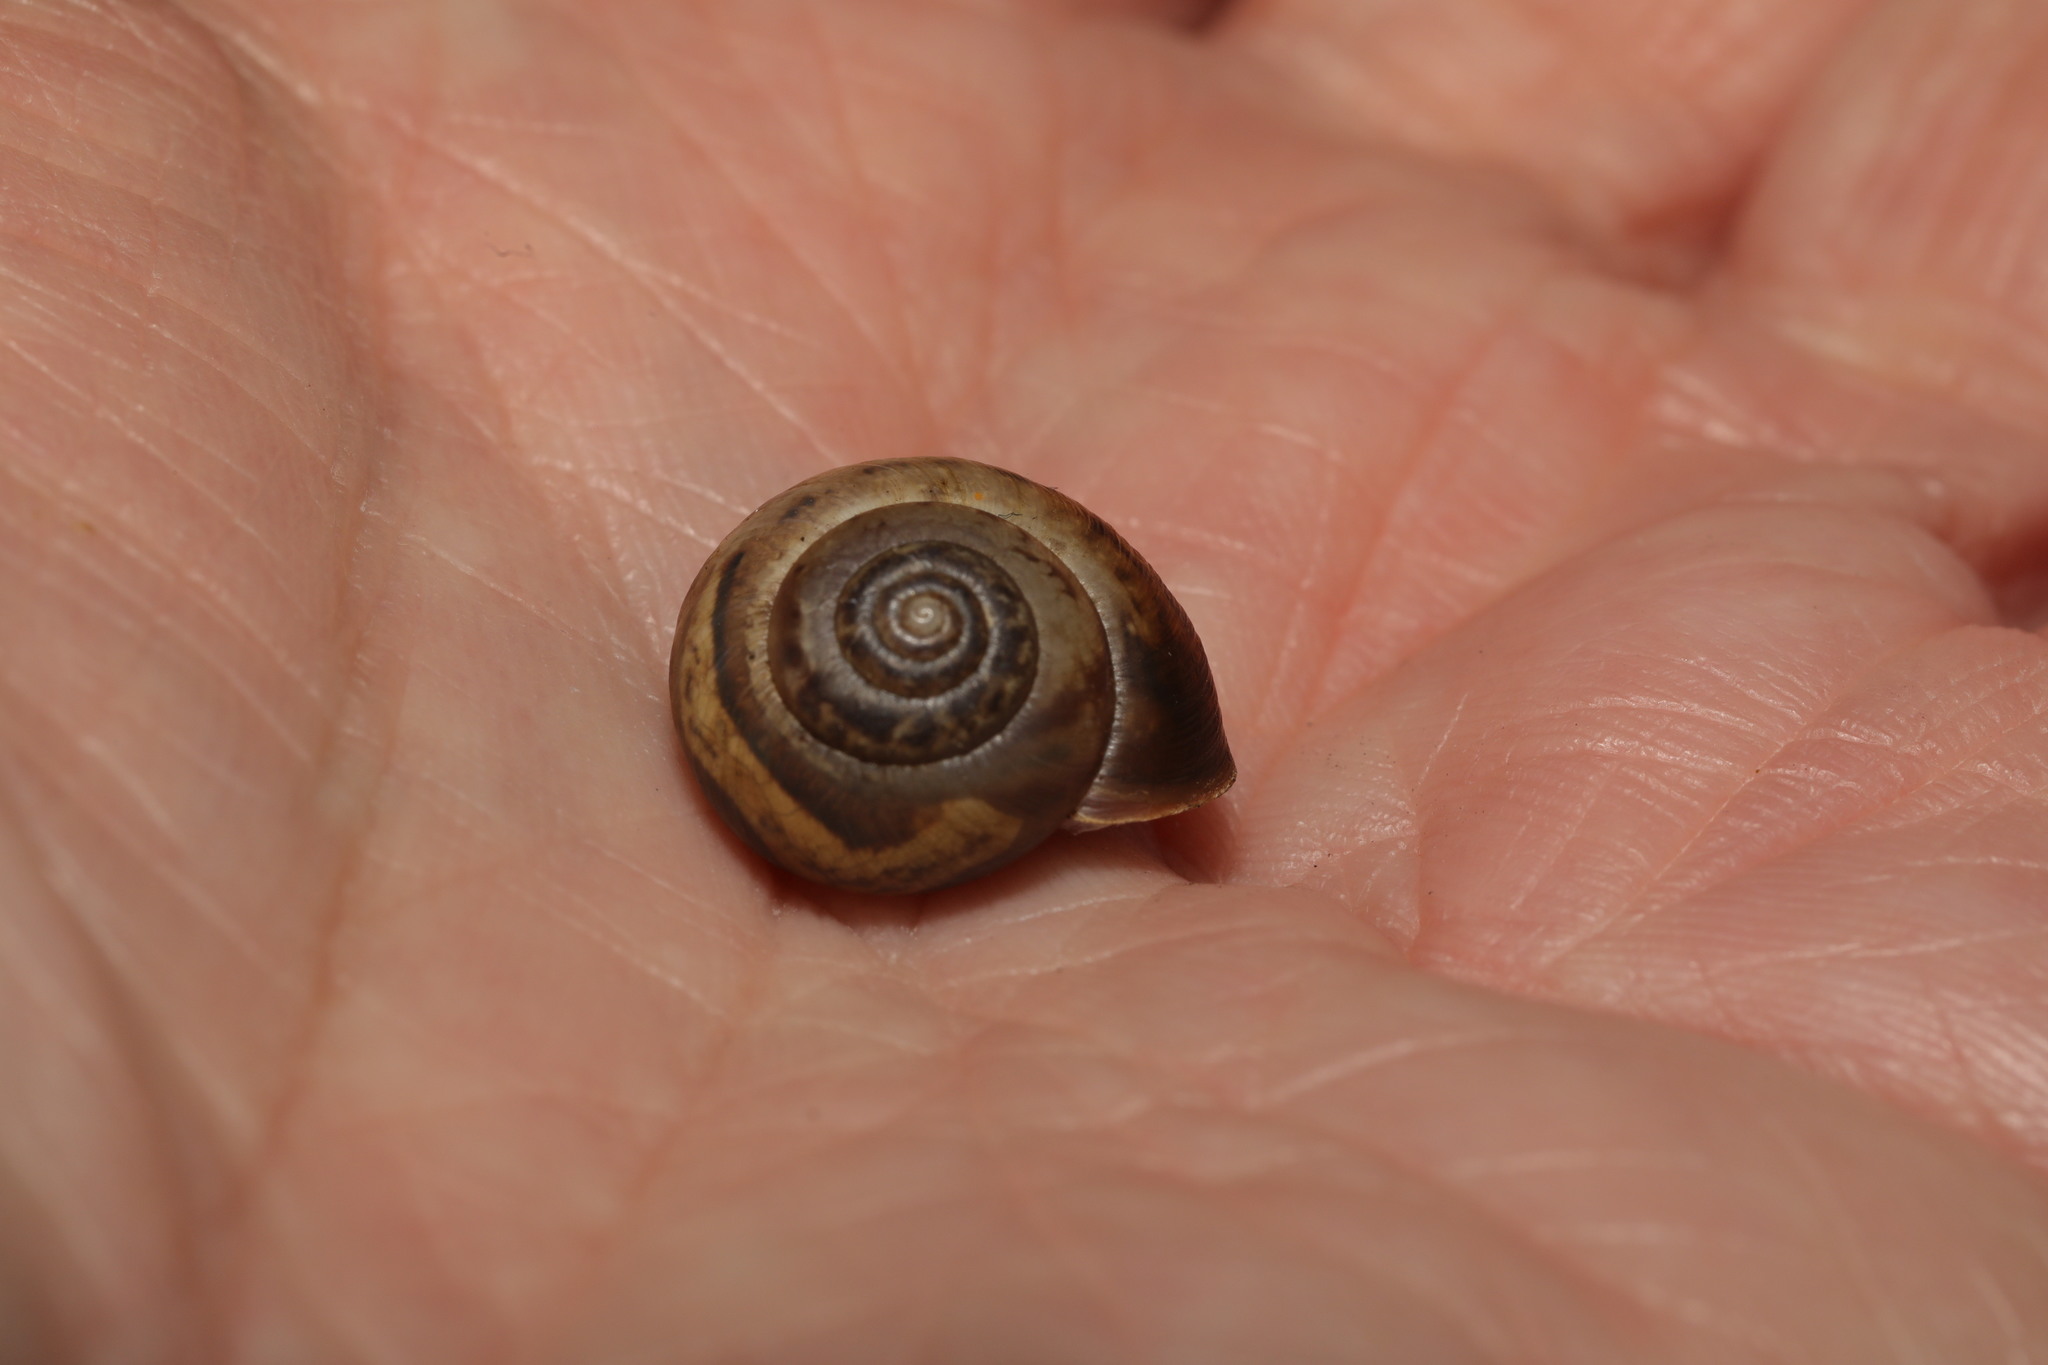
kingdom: Animalia
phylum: Mollusca
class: Gastropoda
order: Stylommatophora
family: Hygromiidae
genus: Monacha
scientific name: Monacha cantiana
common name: Kentish snail
